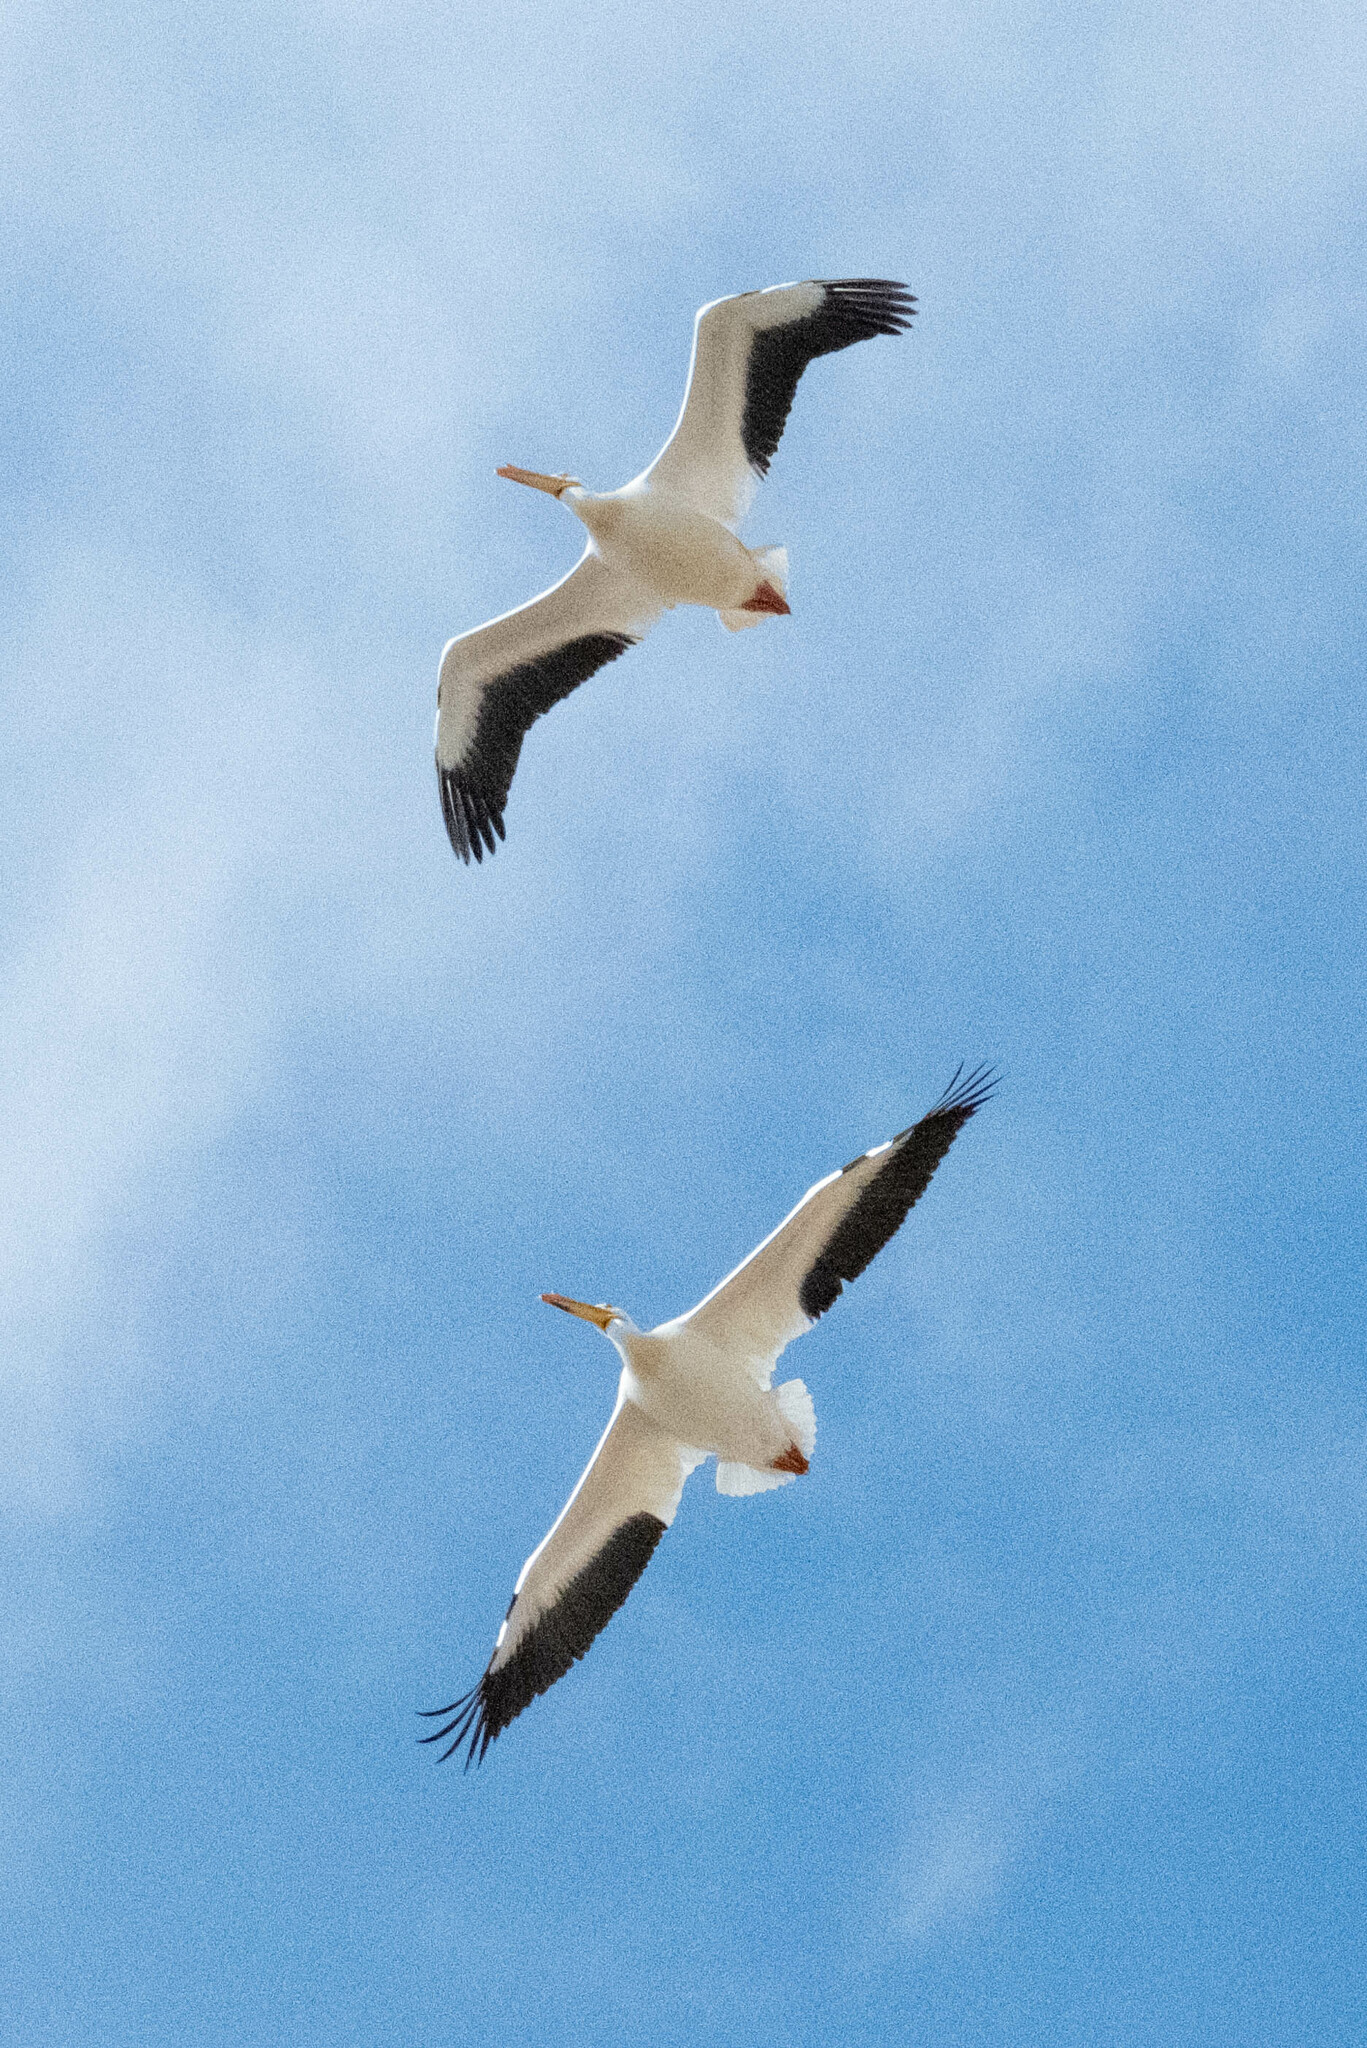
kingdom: Animalia
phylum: Chordata
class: Aves
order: Pelecaniformes
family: Pelecanidae
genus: Pelecanus
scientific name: Pelecanus erythrorhynchos
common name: American white pelican
